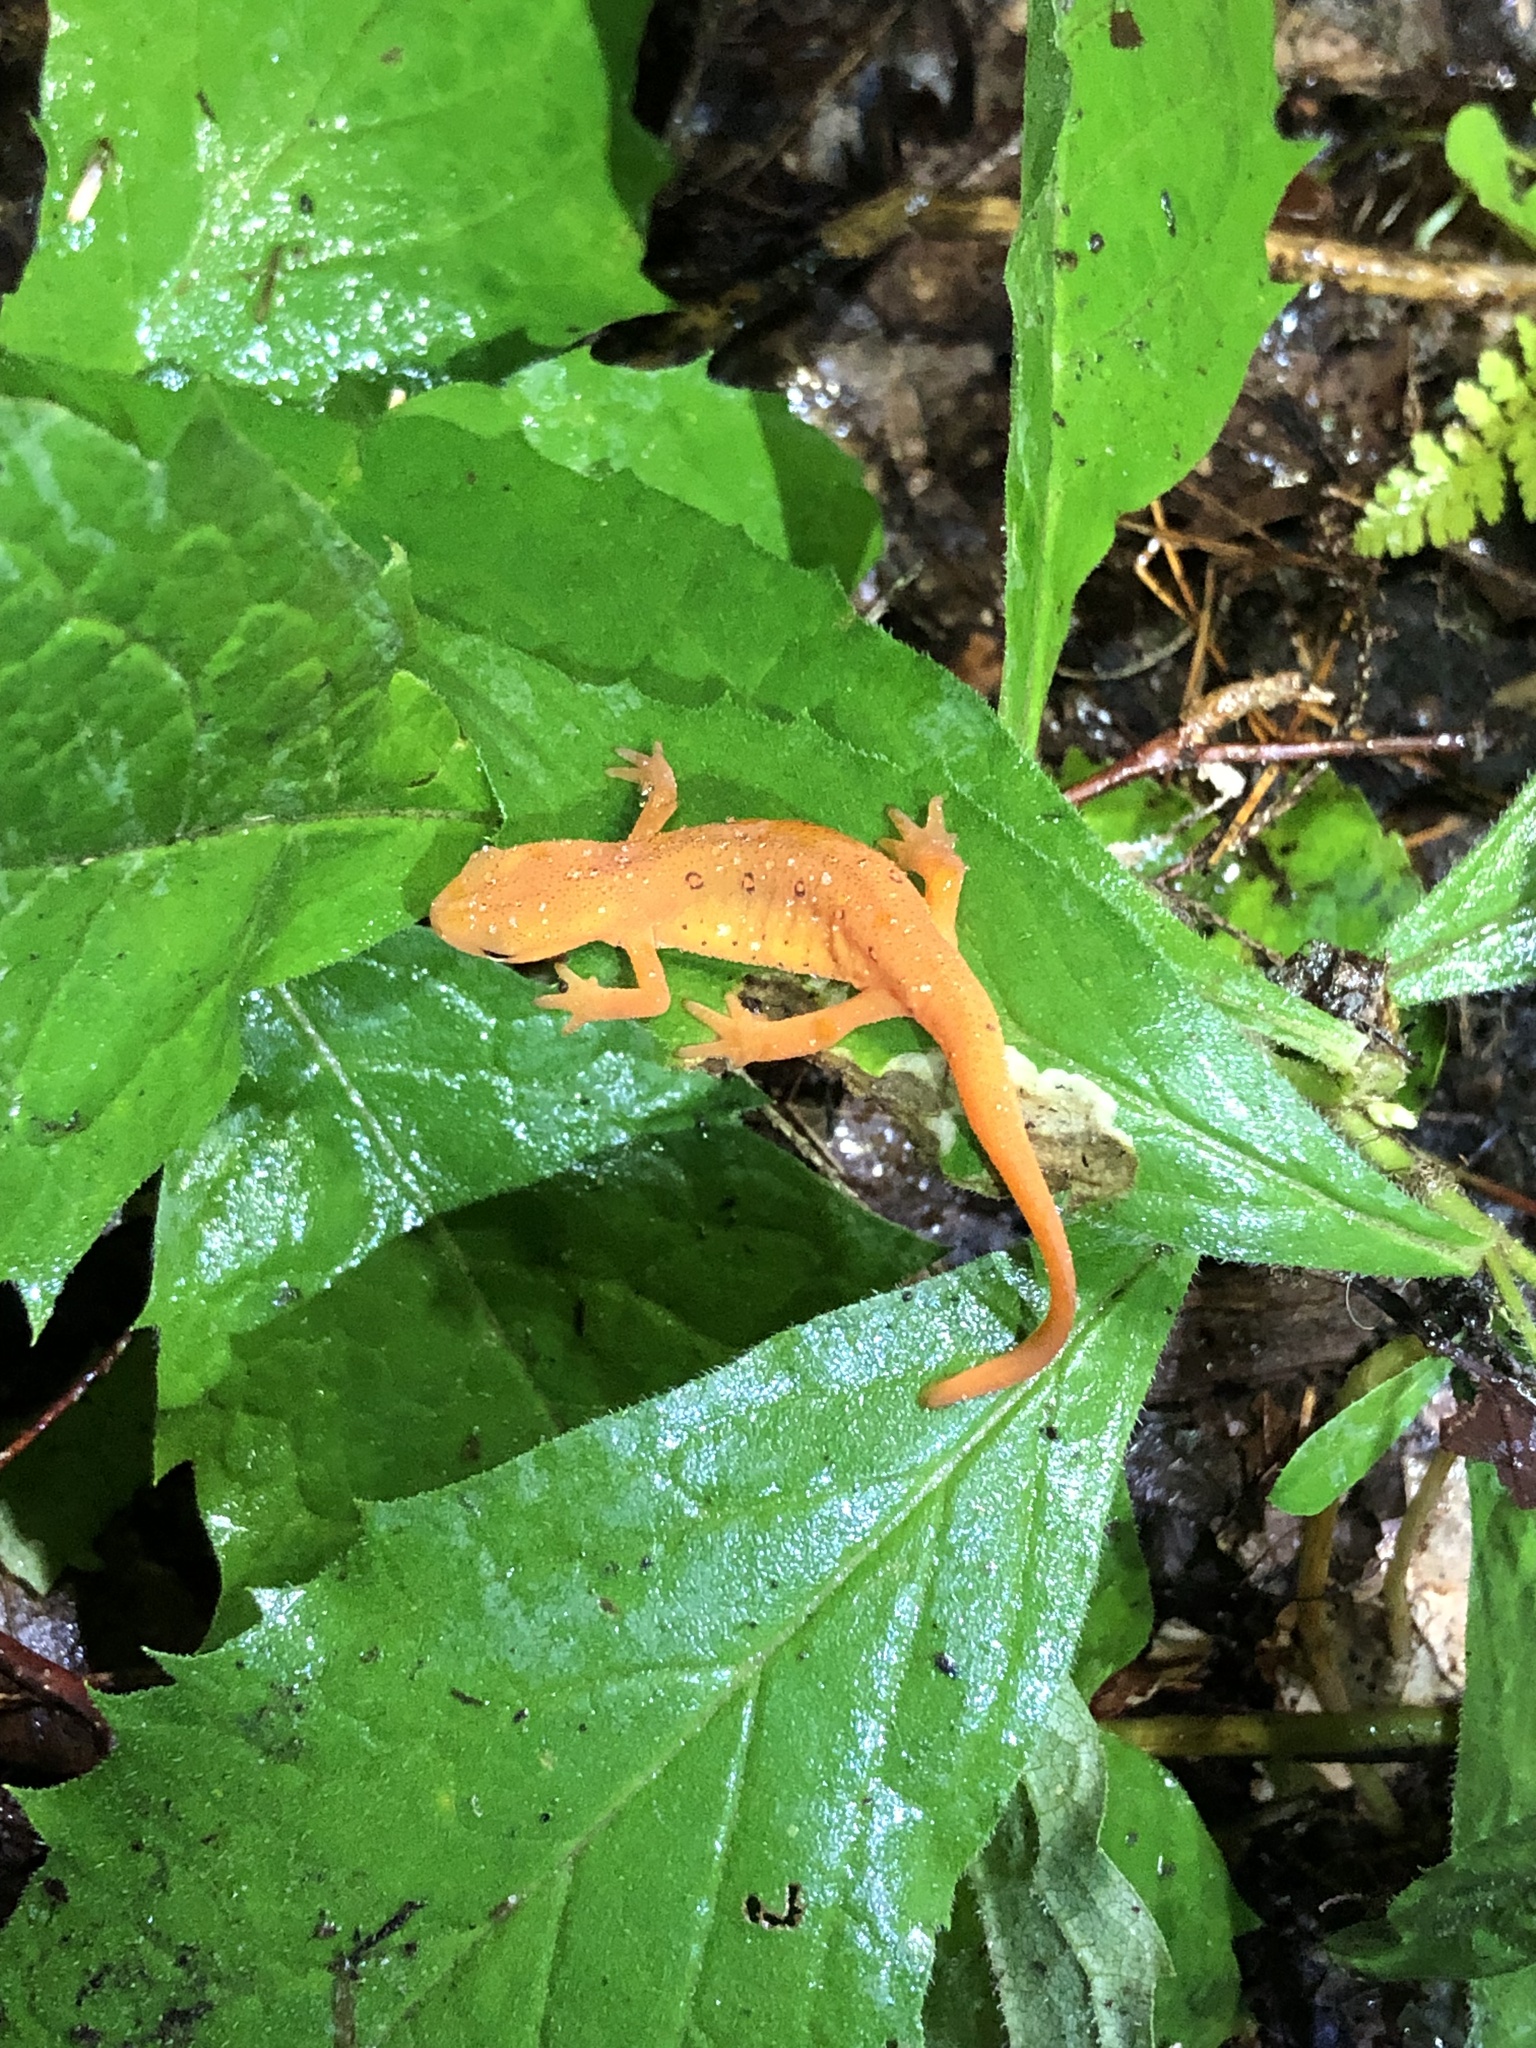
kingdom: Animalia
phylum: Chordata
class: Amphibia
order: Caudata
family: Salamandridae
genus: Notophthalmus
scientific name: Notophthalmus viridescens
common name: Eastern newt
